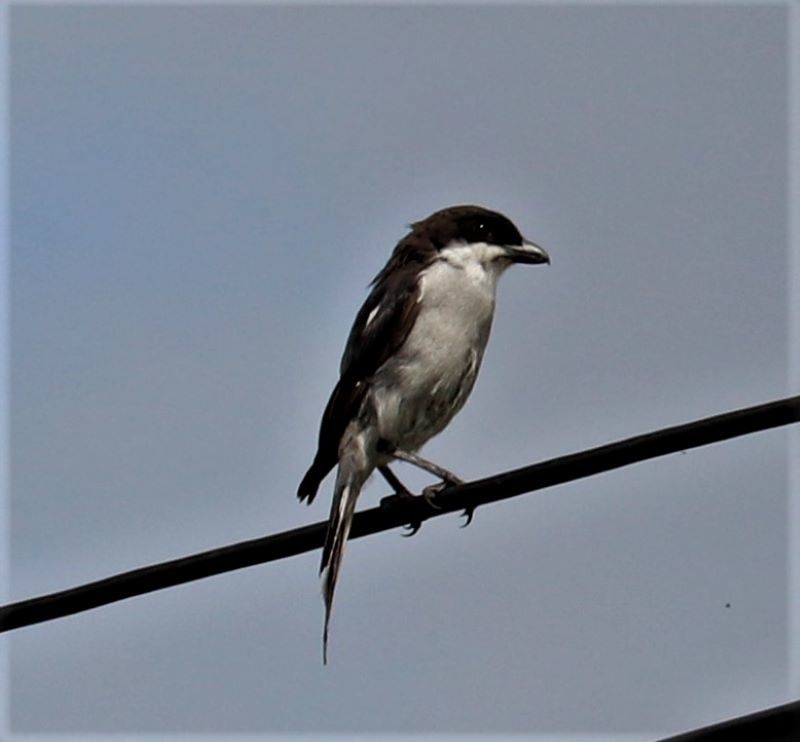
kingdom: Animalia
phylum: Chordata
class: Aves
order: Passeriformes
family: Laniidae
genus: Lanius
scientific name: Lanius collaris
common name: Southern fiscal
